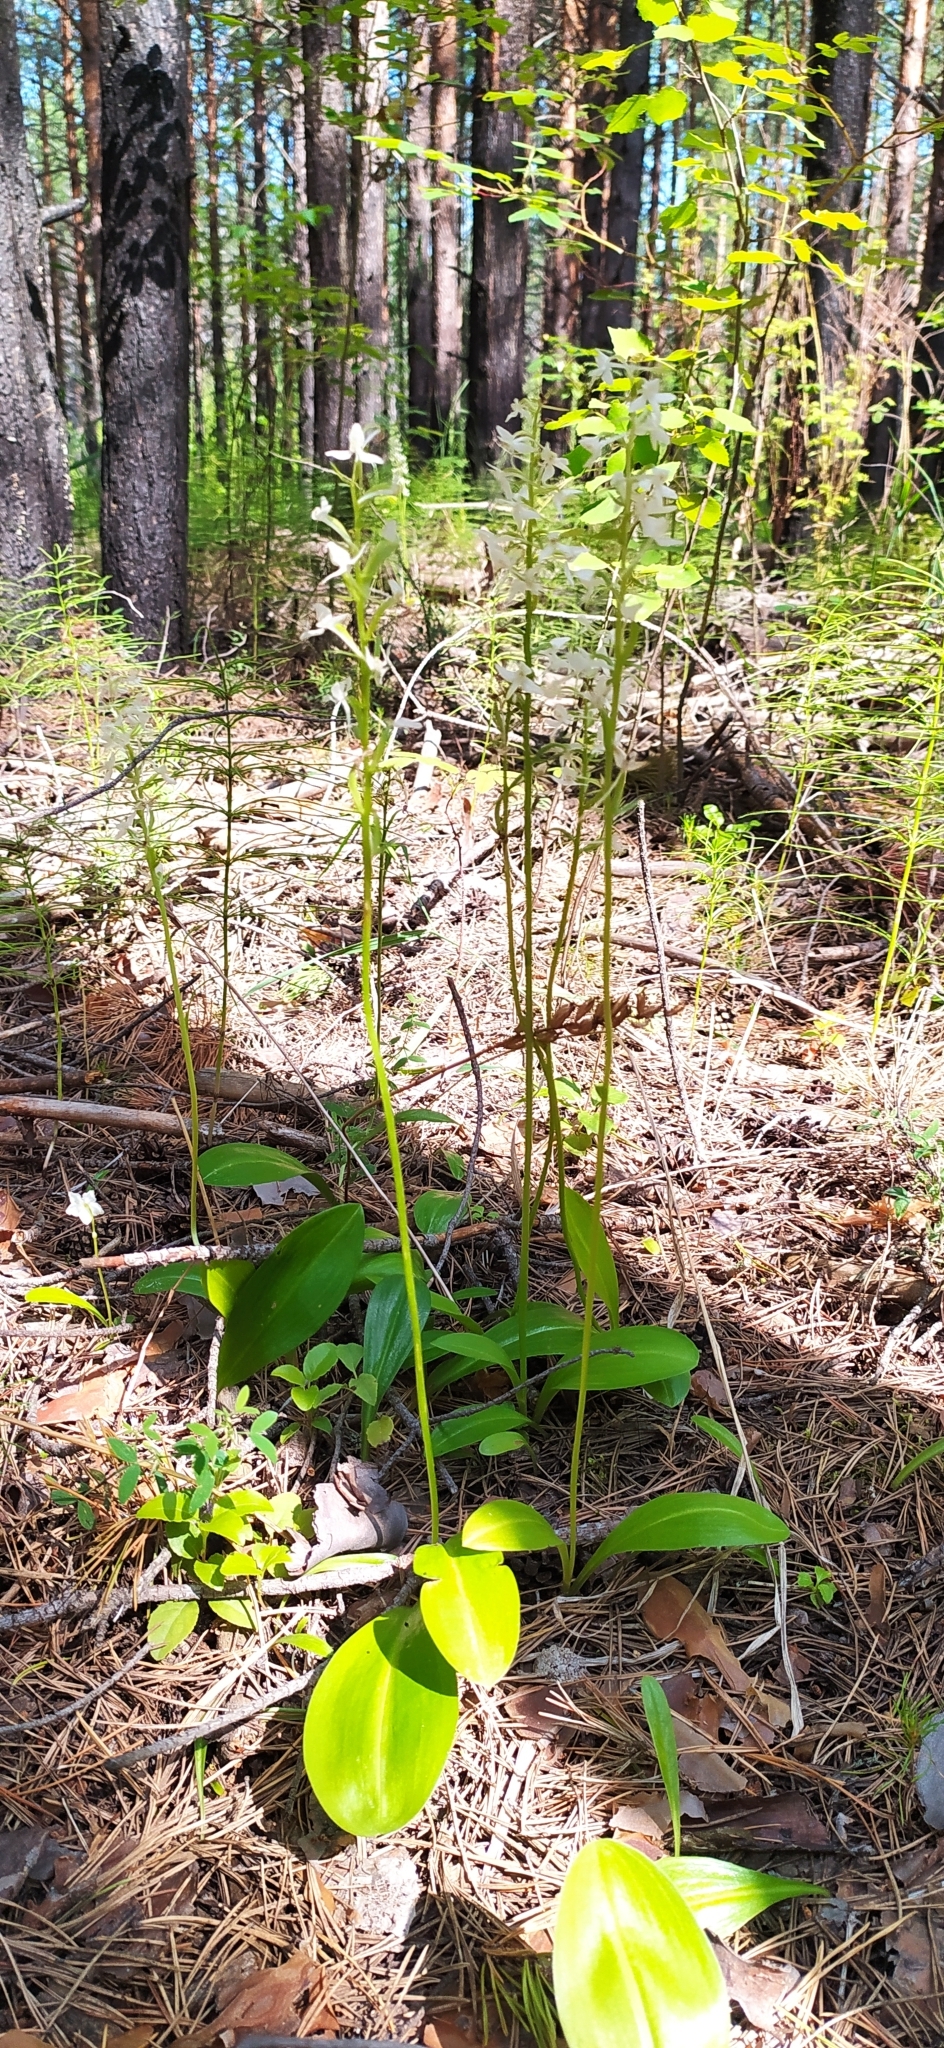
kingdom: Plantae
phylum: Tracheophyta
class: Liliopsida
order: Asparagales
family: Orchidaceae
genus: Platanthera
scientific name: Platanthera bifolia
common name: Lesser butterfly-orchid
